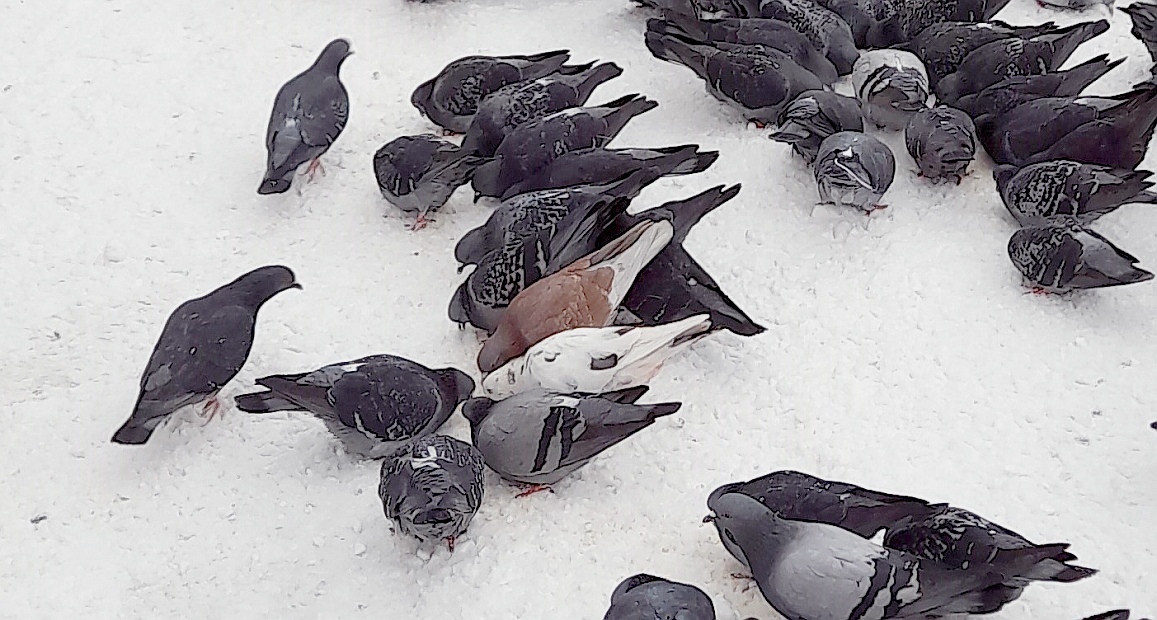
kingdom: Animalia
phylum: Chordata
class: Aves
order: Columbiformes
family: Columbidae
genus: Columba
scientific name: Columba livia
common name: Rock pigeon
